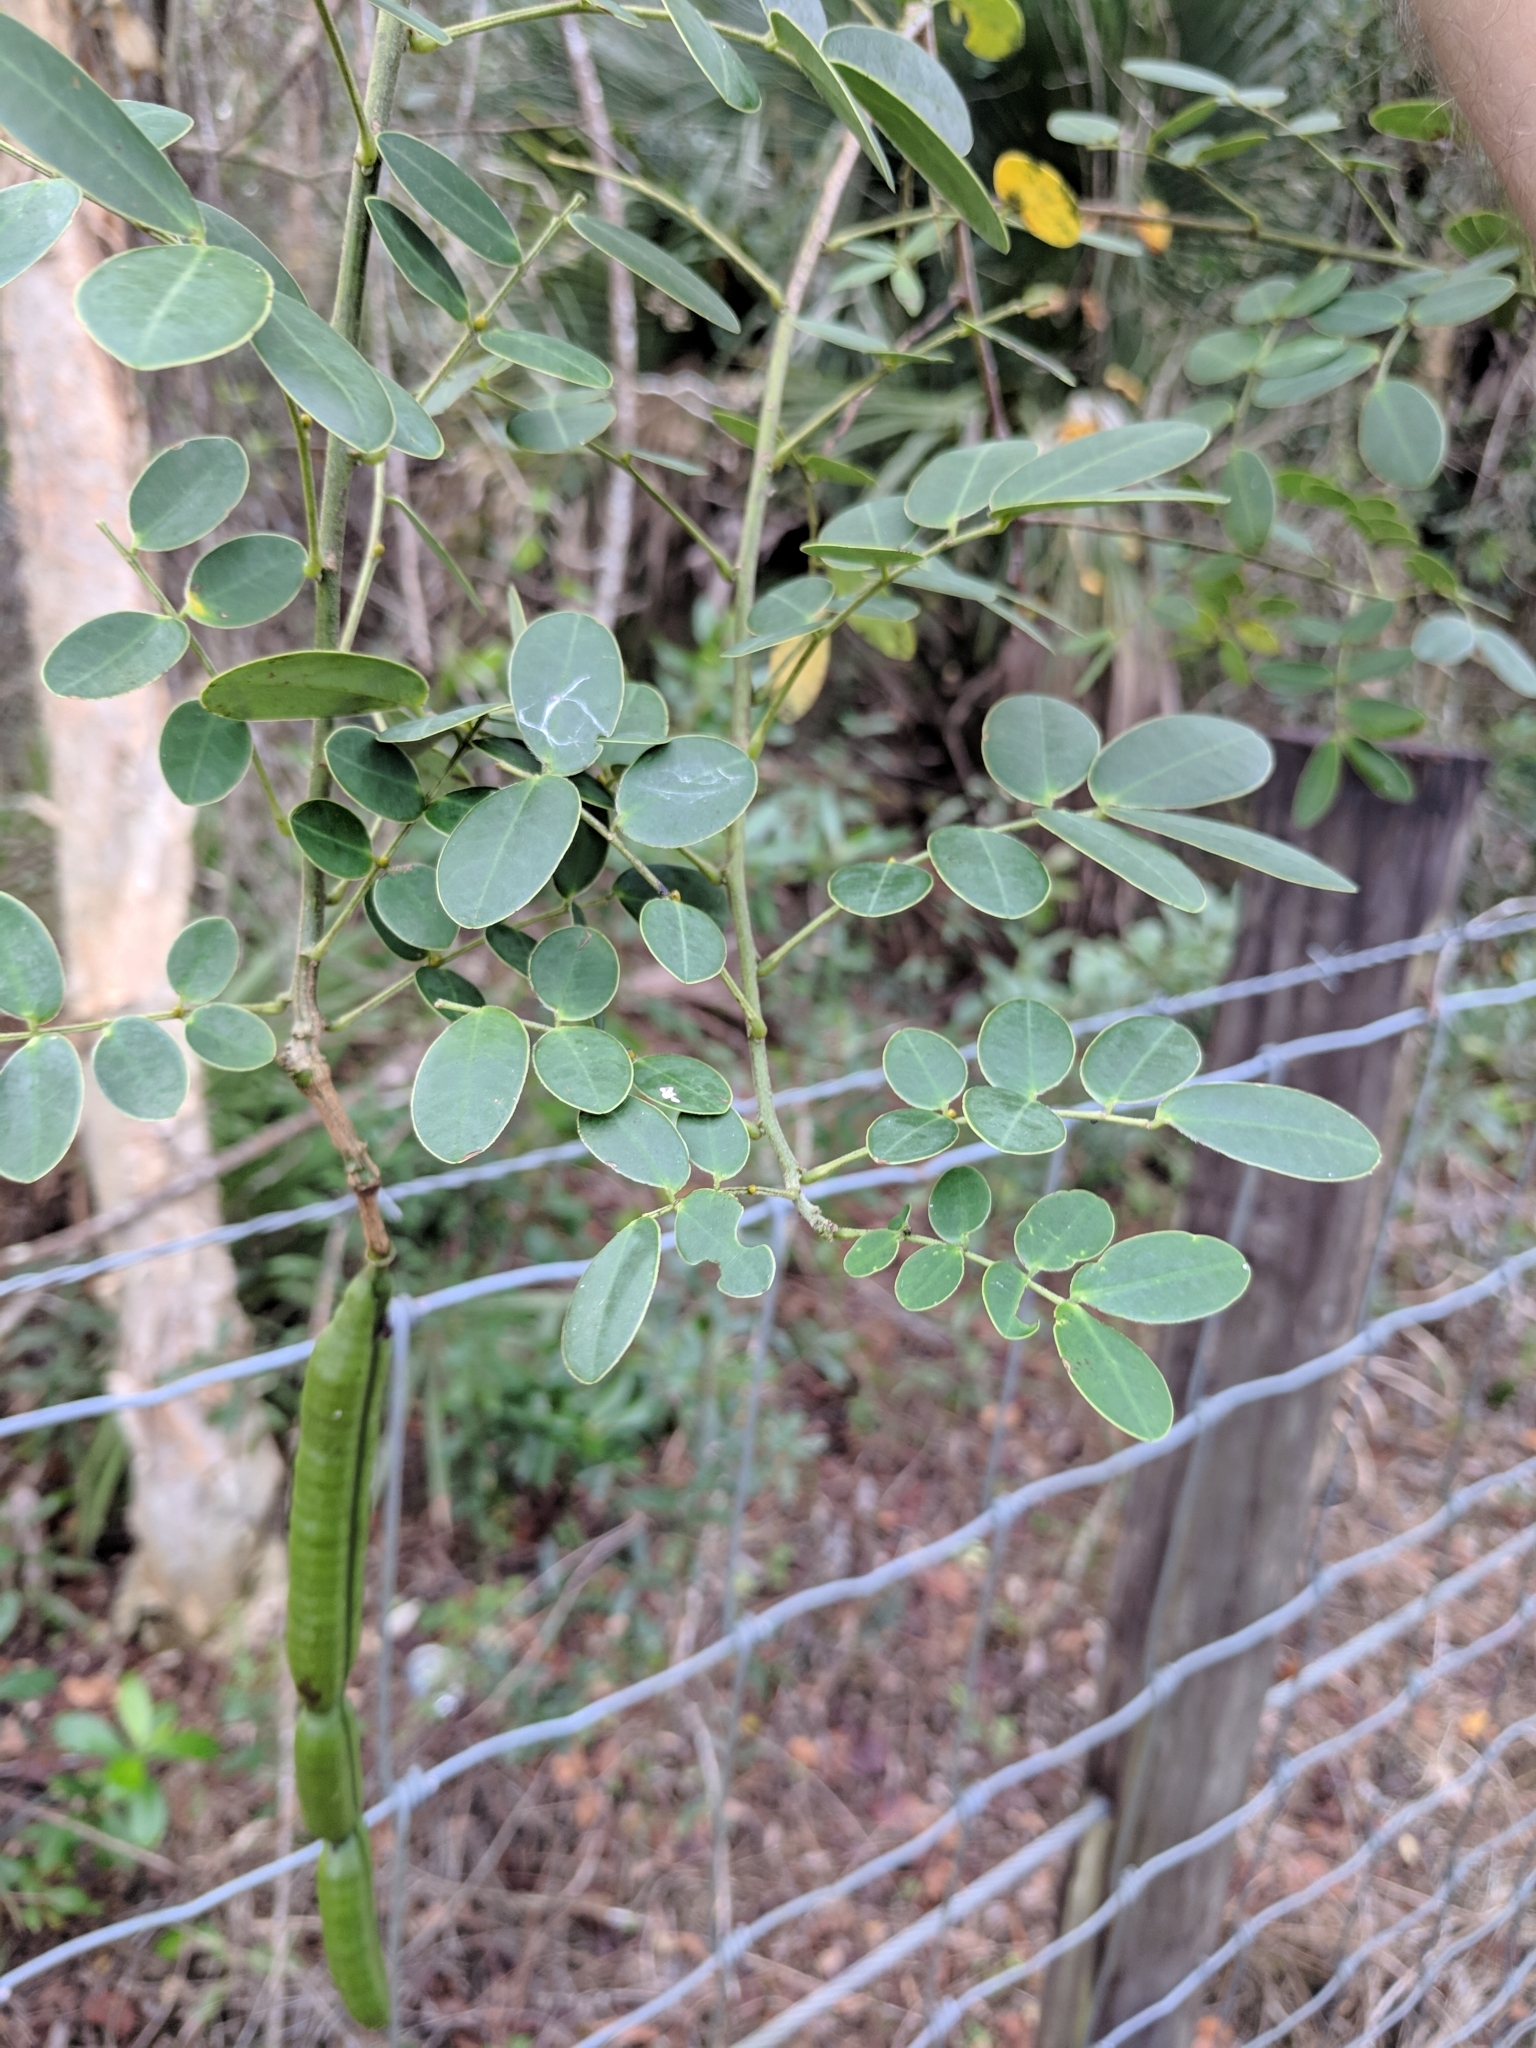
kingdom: Plantae
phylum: Tracheophyta
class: Magnoliopsida
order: Fabales
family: Fabaceae
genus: Senna
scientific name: Senna pendula
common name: Easter cassia
